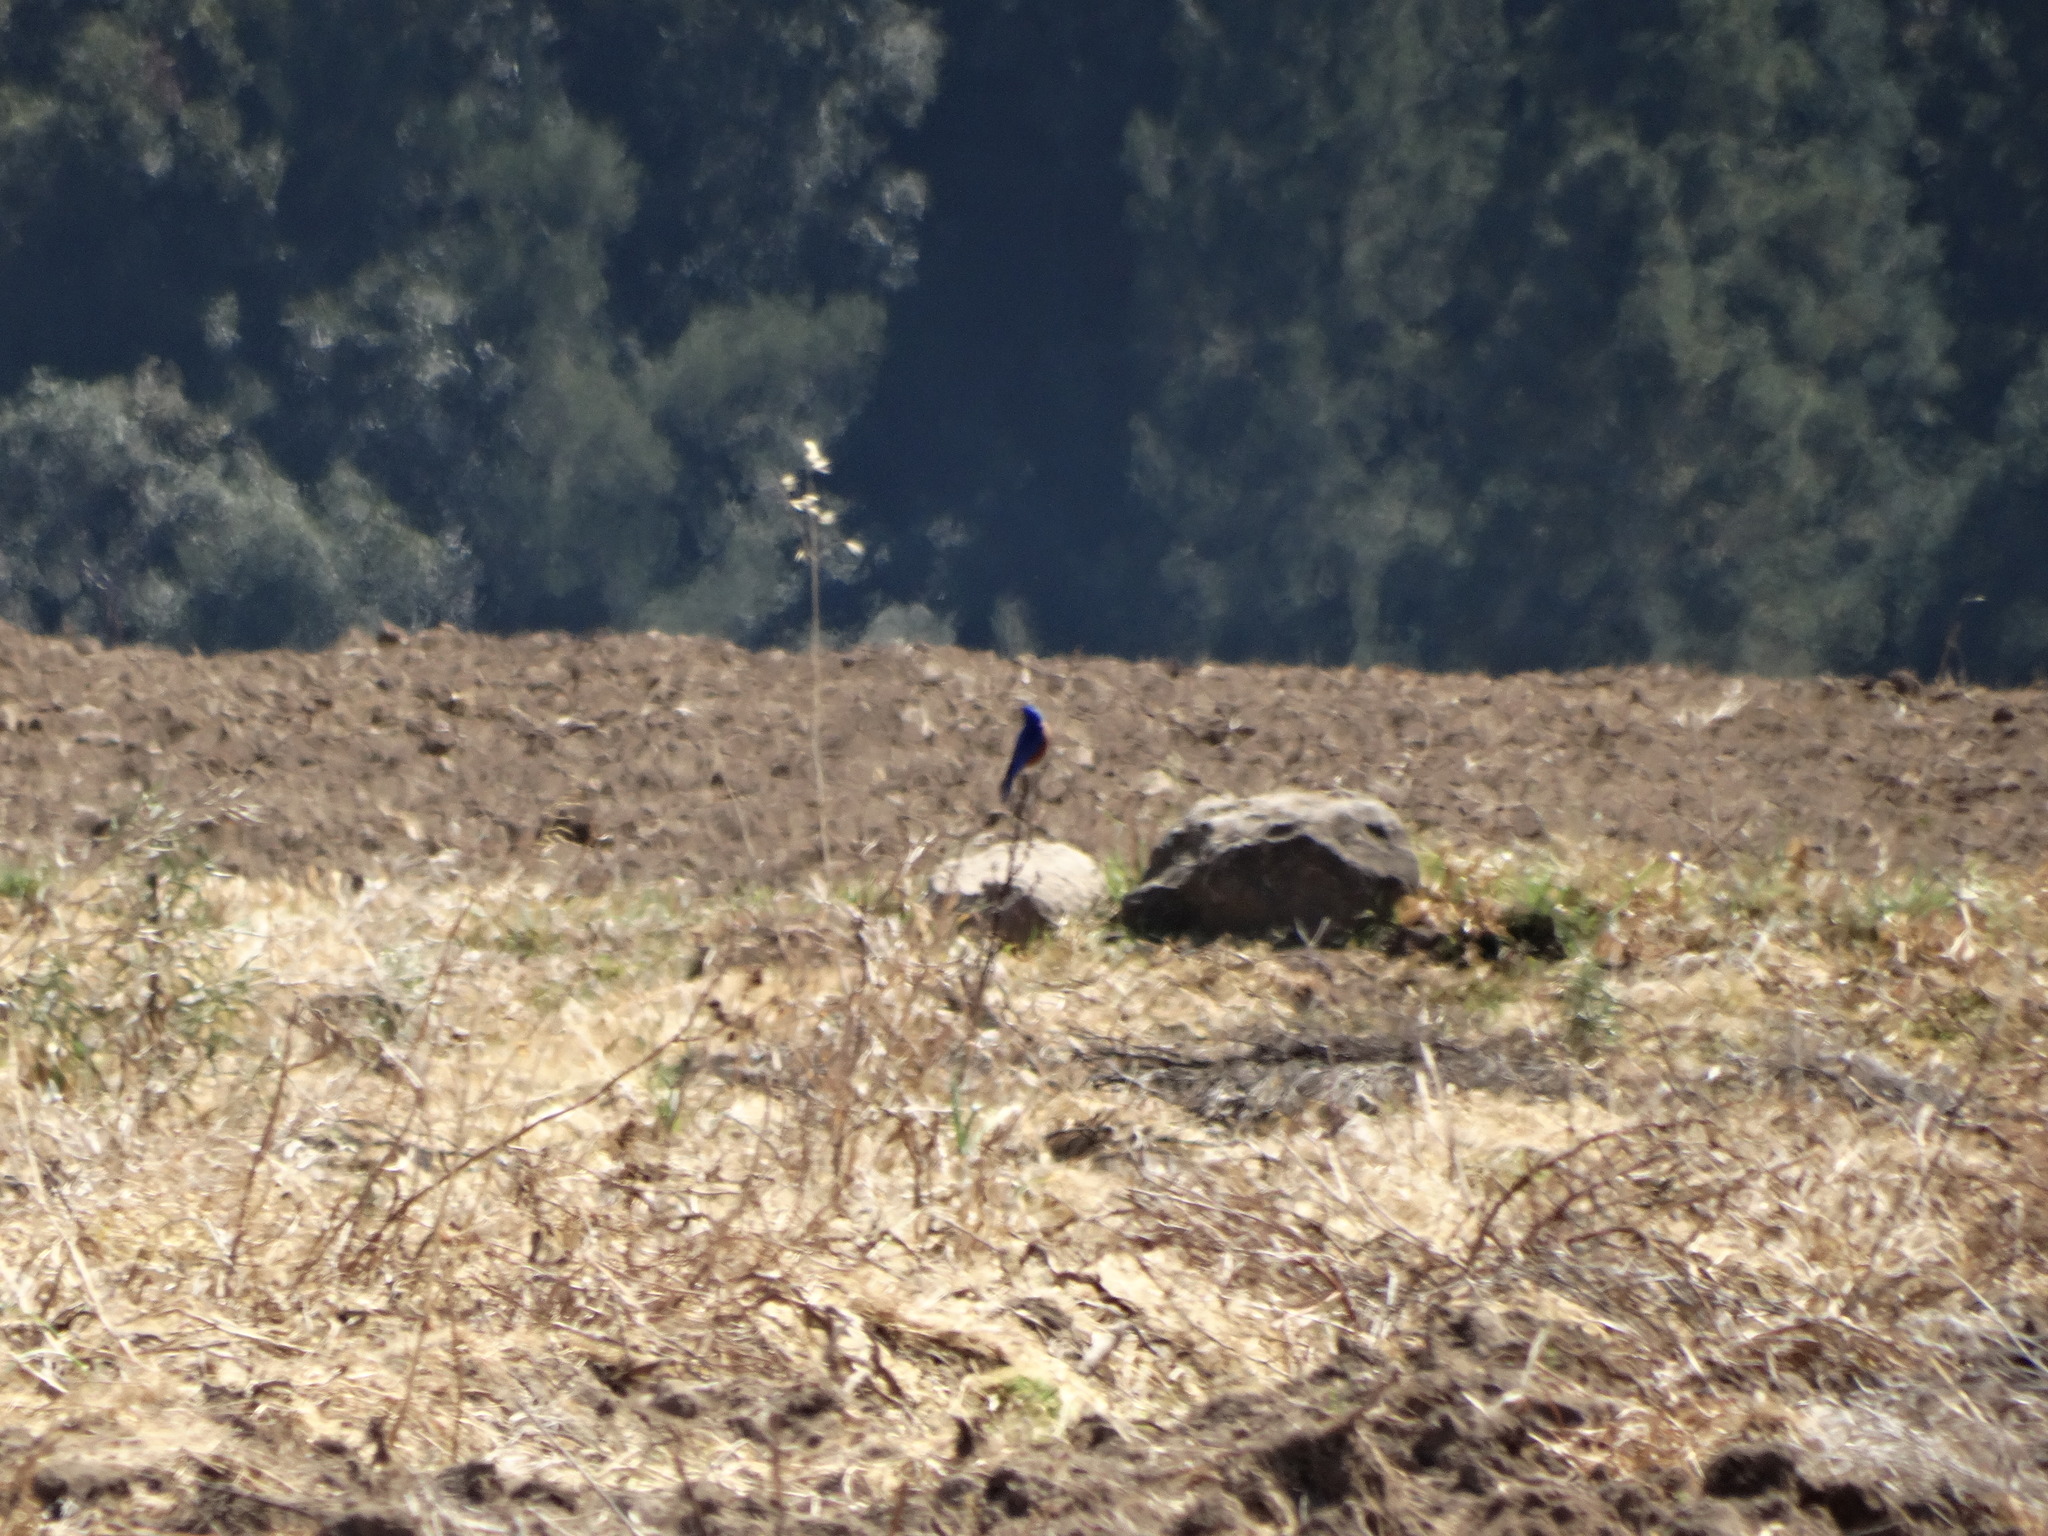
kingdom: Animalia
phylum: Chordata
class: Aves
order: Passeriformes
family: Turdidae
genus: Sialia
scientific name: Sialia mexicana
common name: Western bluebird
